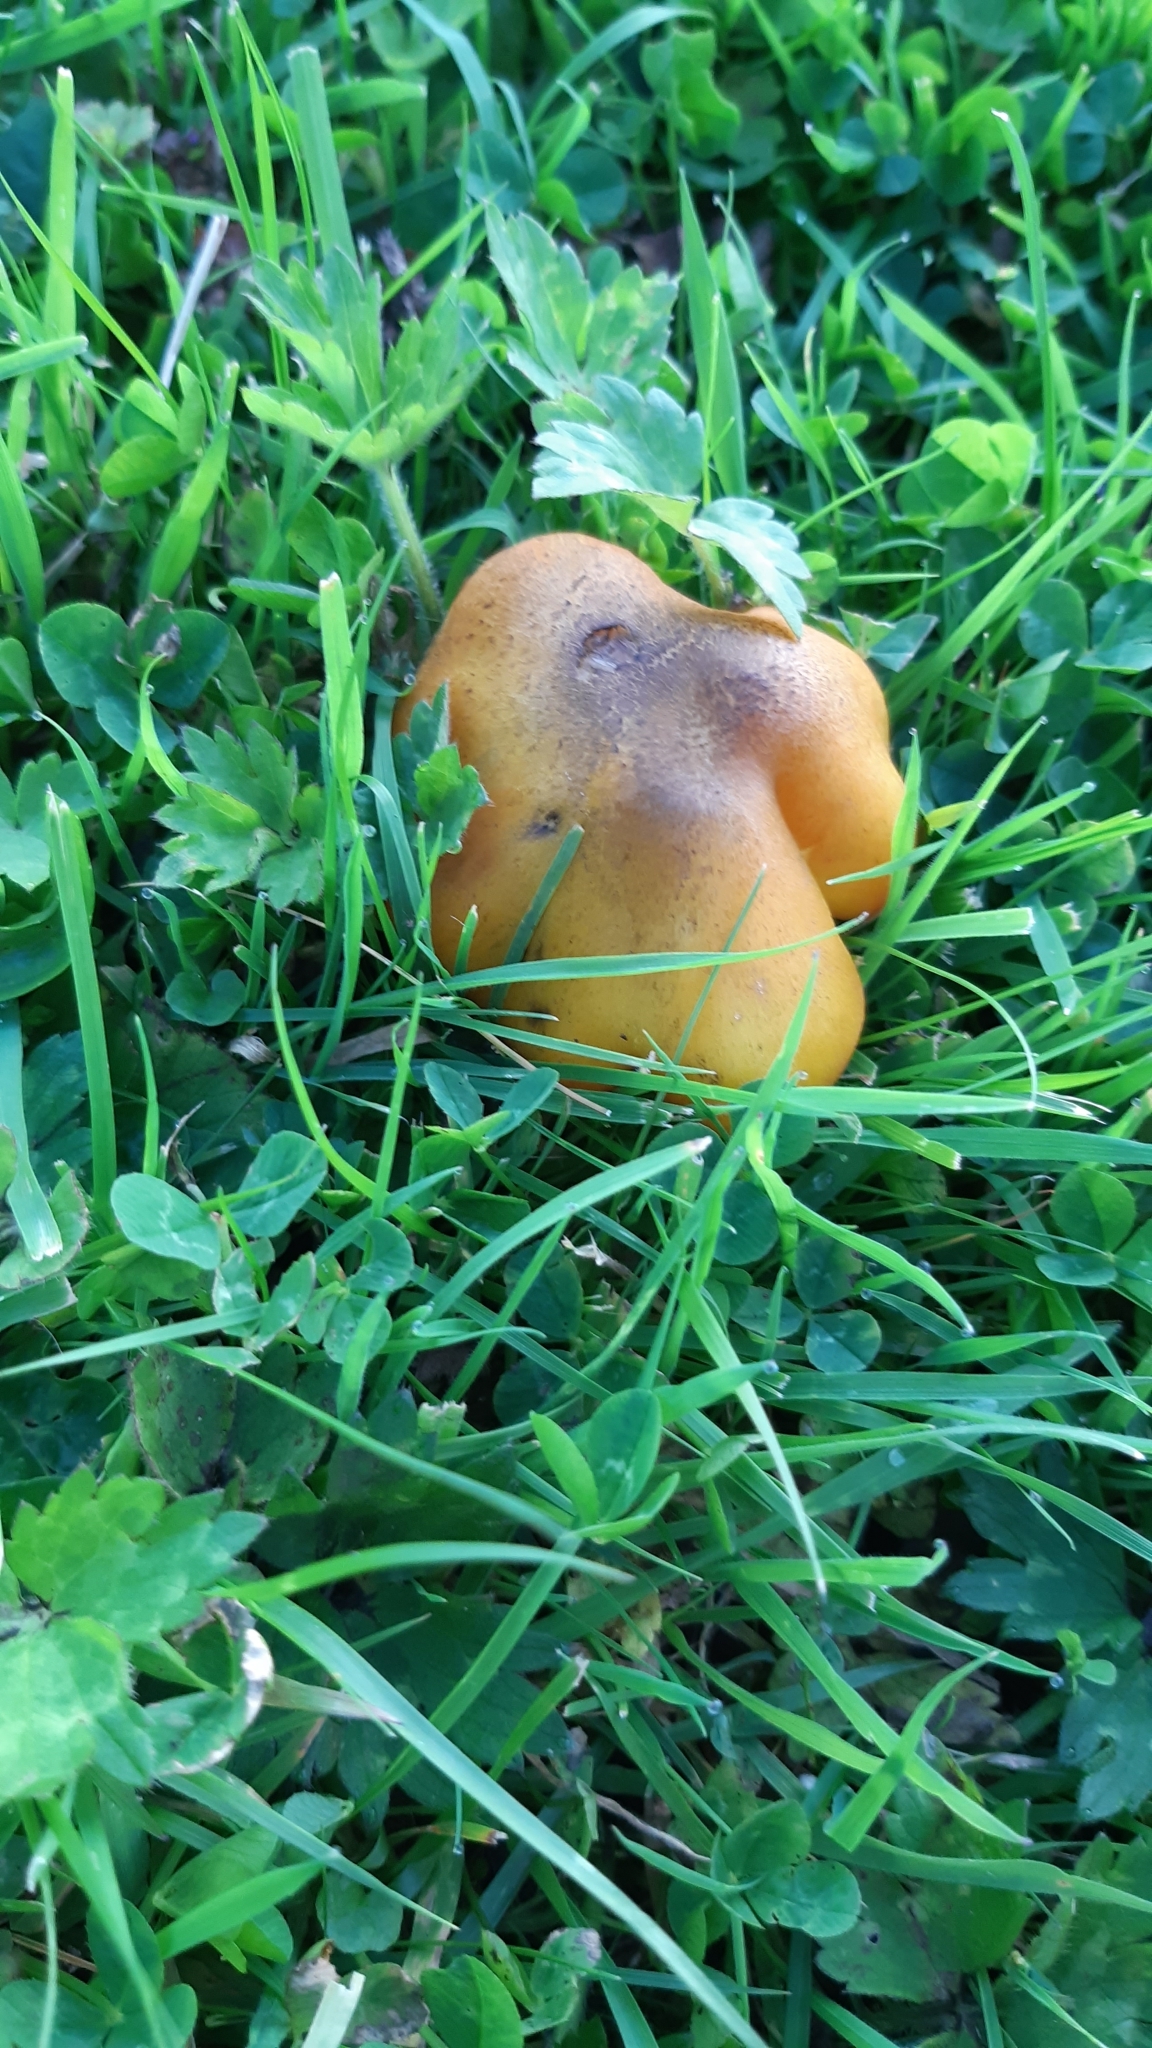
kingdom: Fungi
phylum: Basidiomycota
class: Agaricomycetes
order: Agaricales
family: Hygrophoraceae
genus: Hygrocybe
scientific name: Hygrocybe conica
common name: Blackening wax-cap
